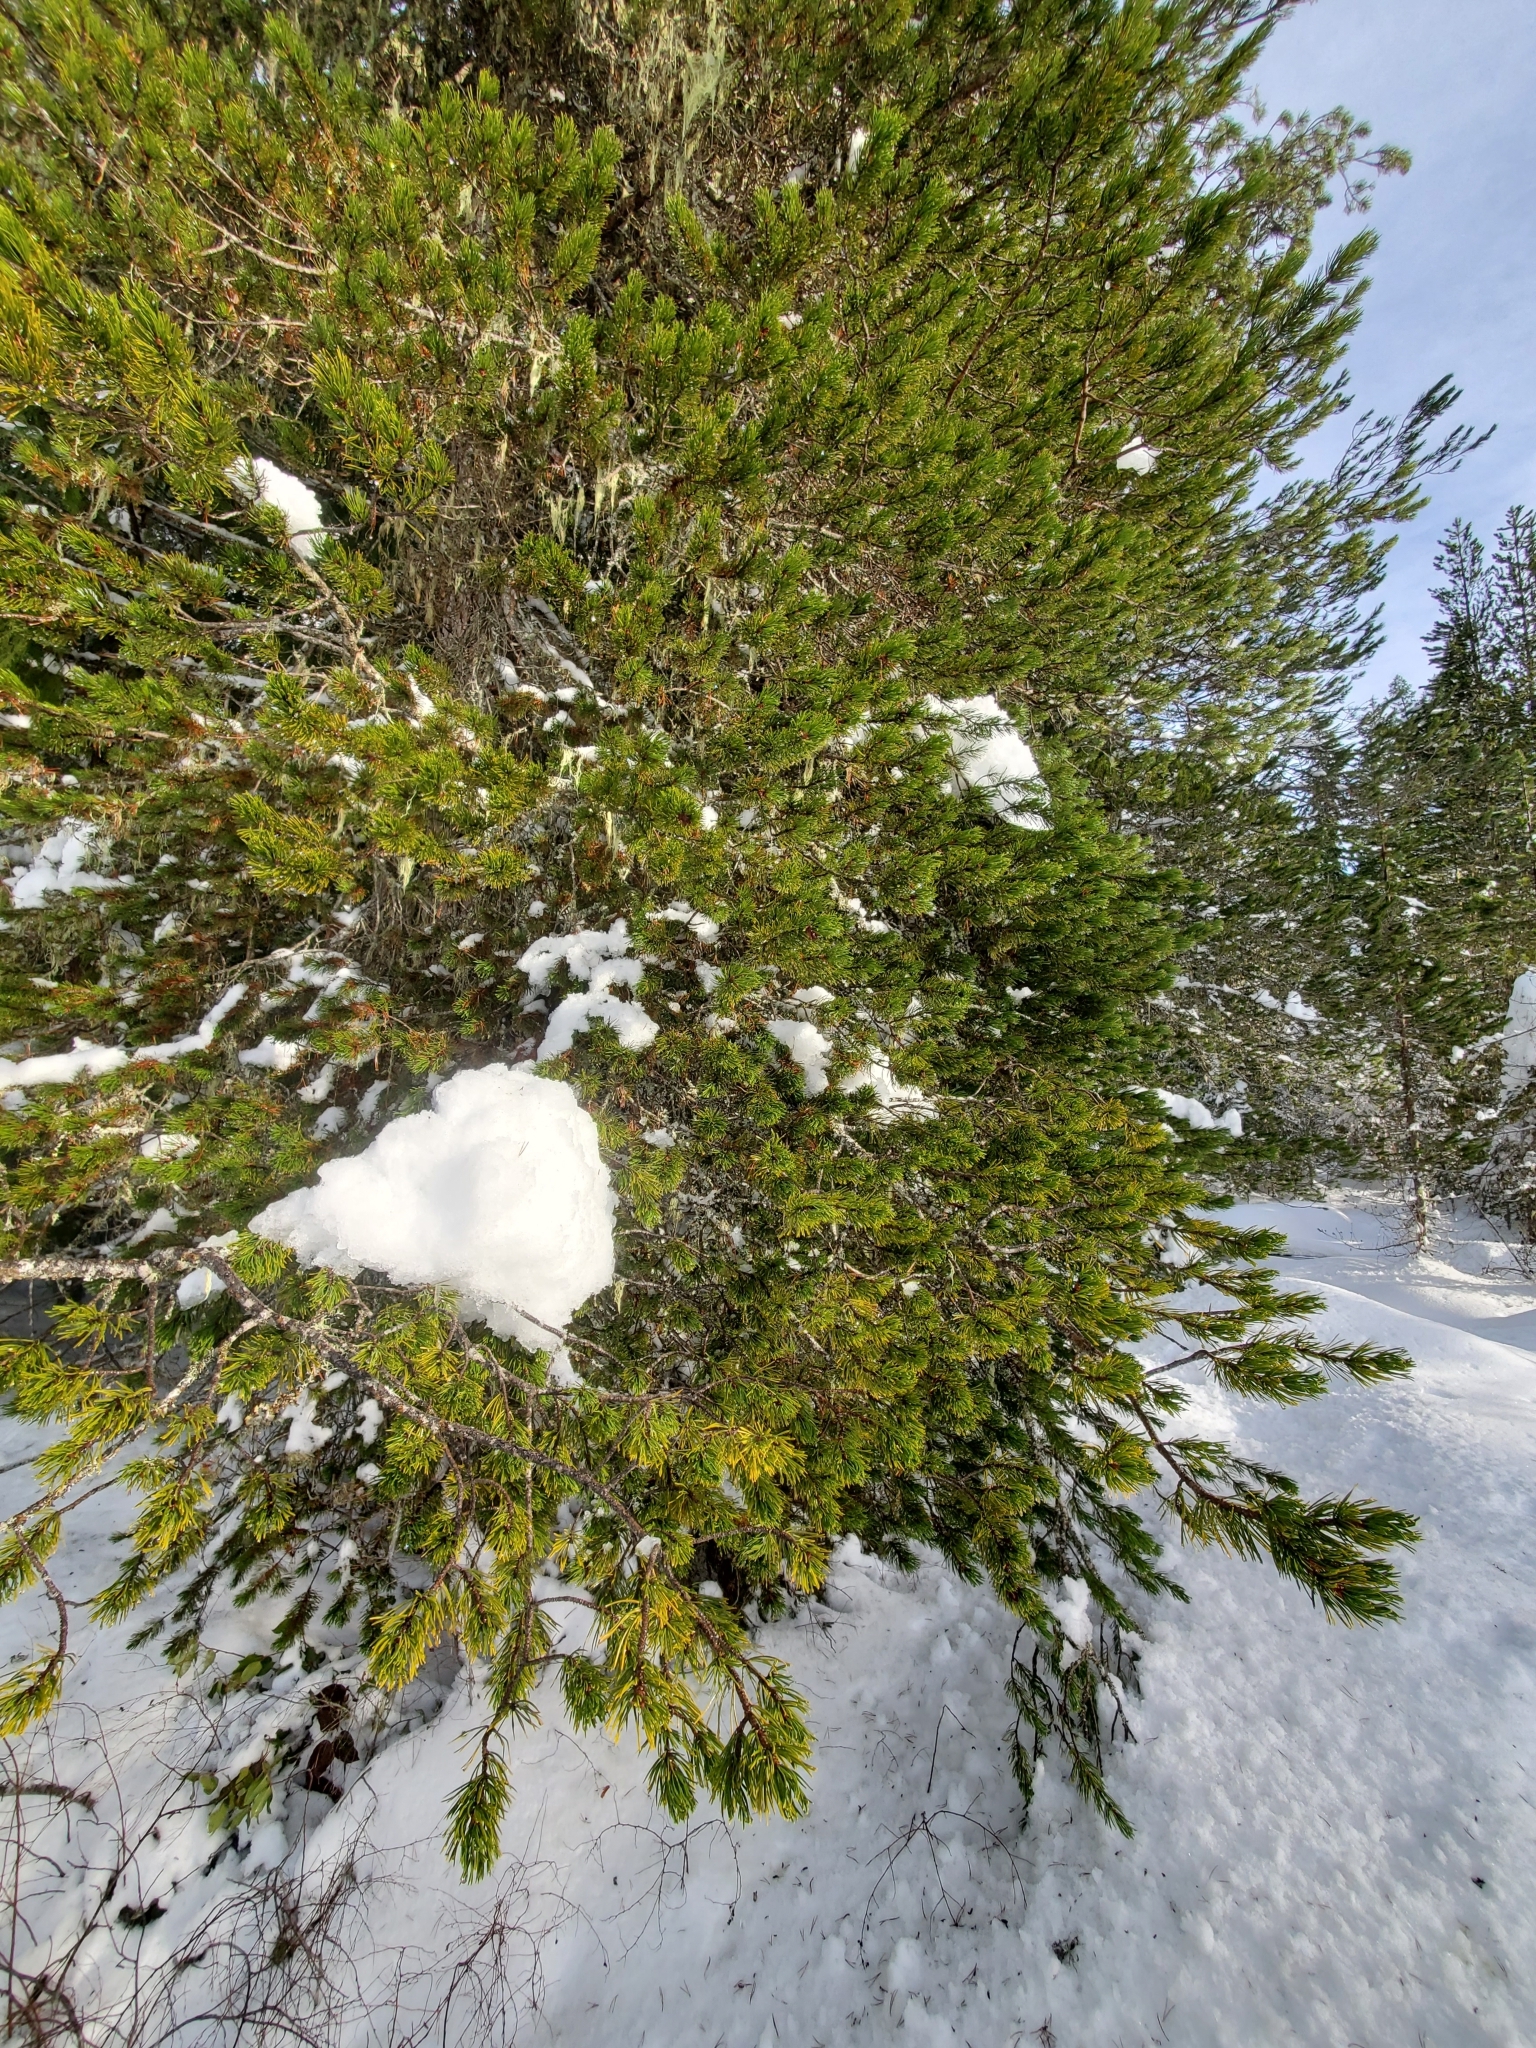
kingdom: Plantae
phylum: Tracheophyta
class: Pinopsida
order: Pinales
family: Pinaceae
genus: Pinus
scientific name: Pinus contorta
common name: Lodgepole pine
